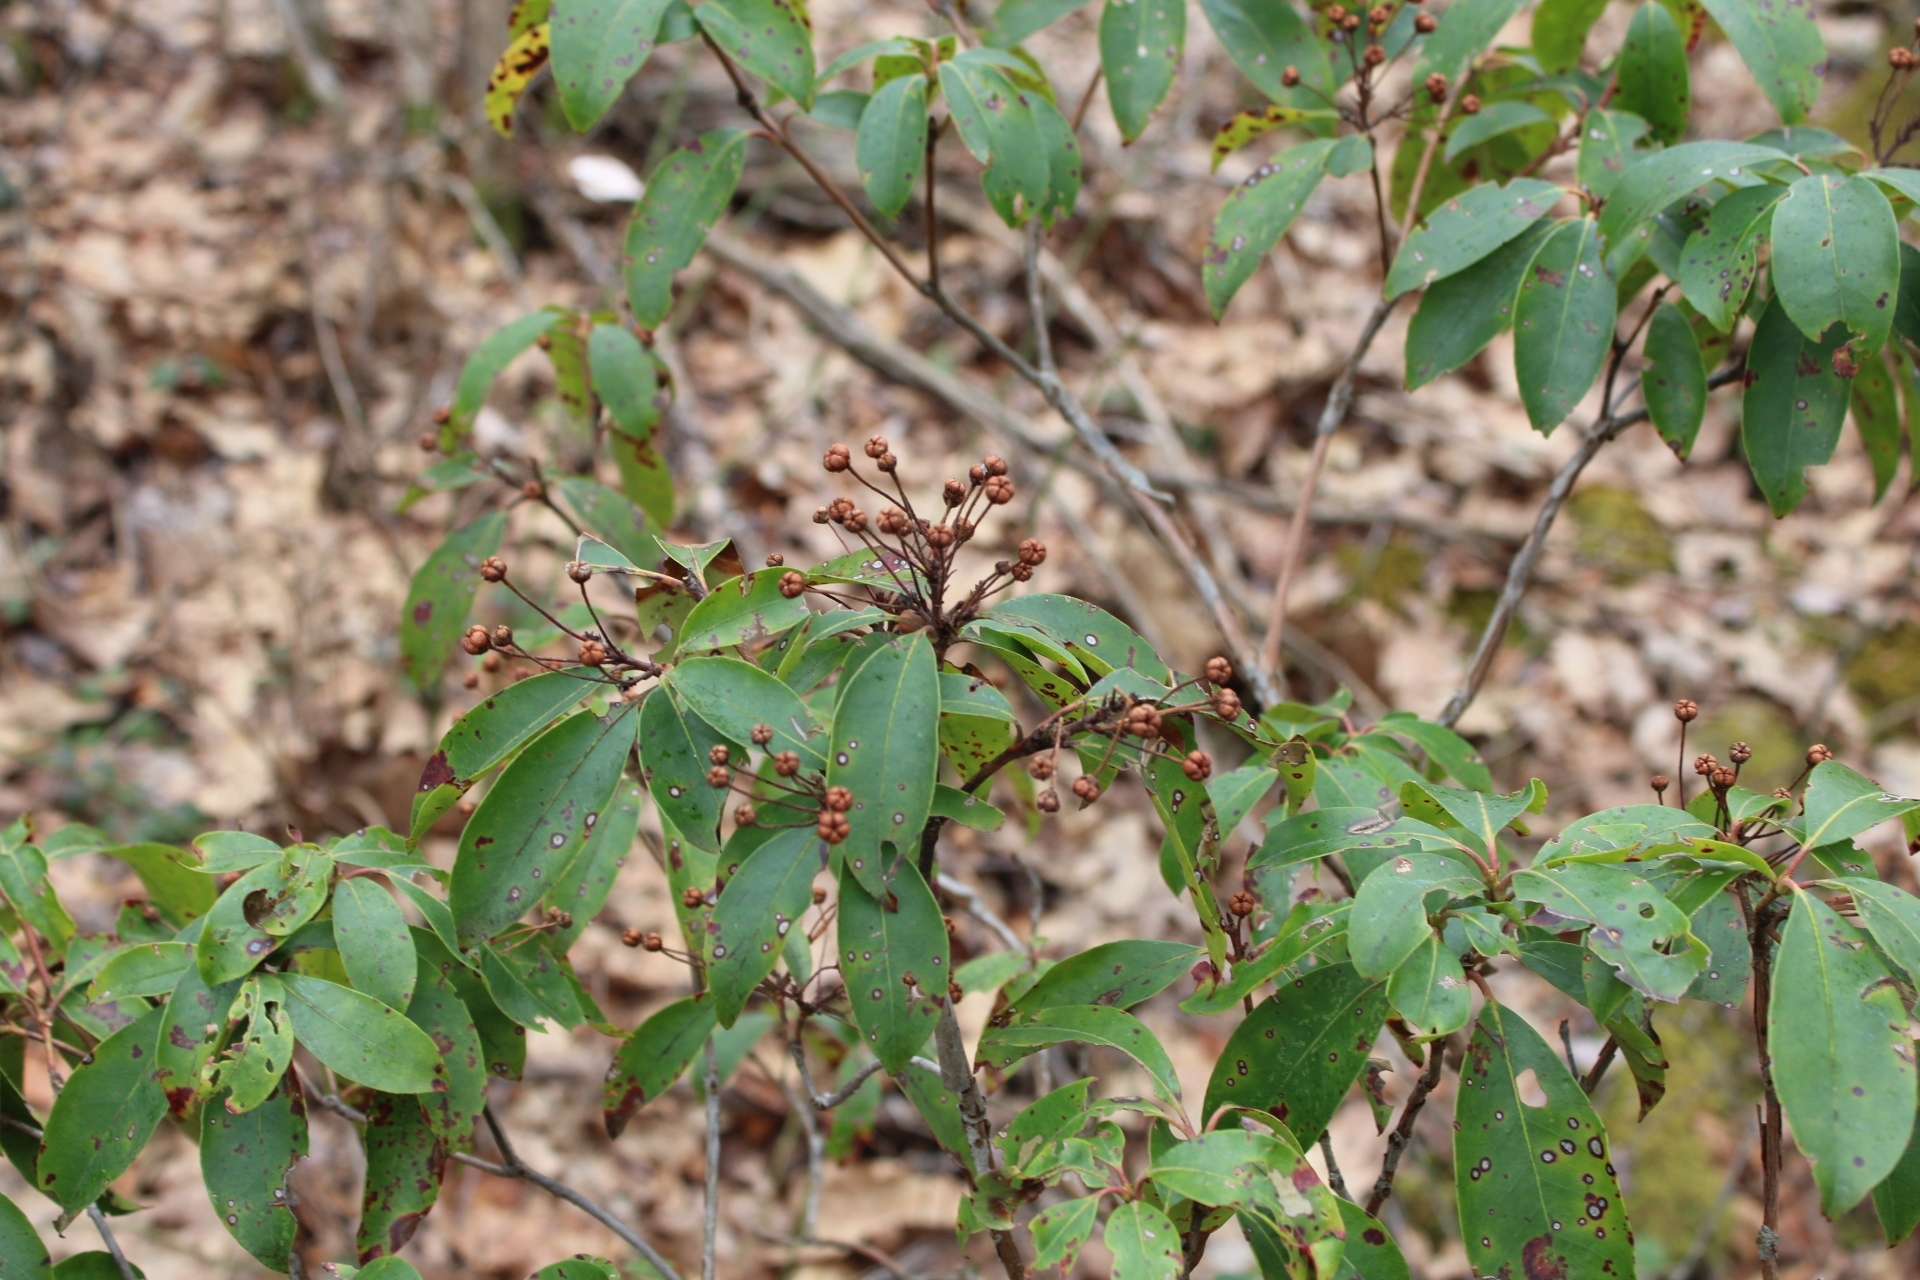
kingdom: Plantae
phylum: Tracheophyta
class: Magnoliopsida
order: Ericales
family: Ericaceae
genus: Kalmia
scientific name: Kalmia latifolia
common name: Mountain-laurel
